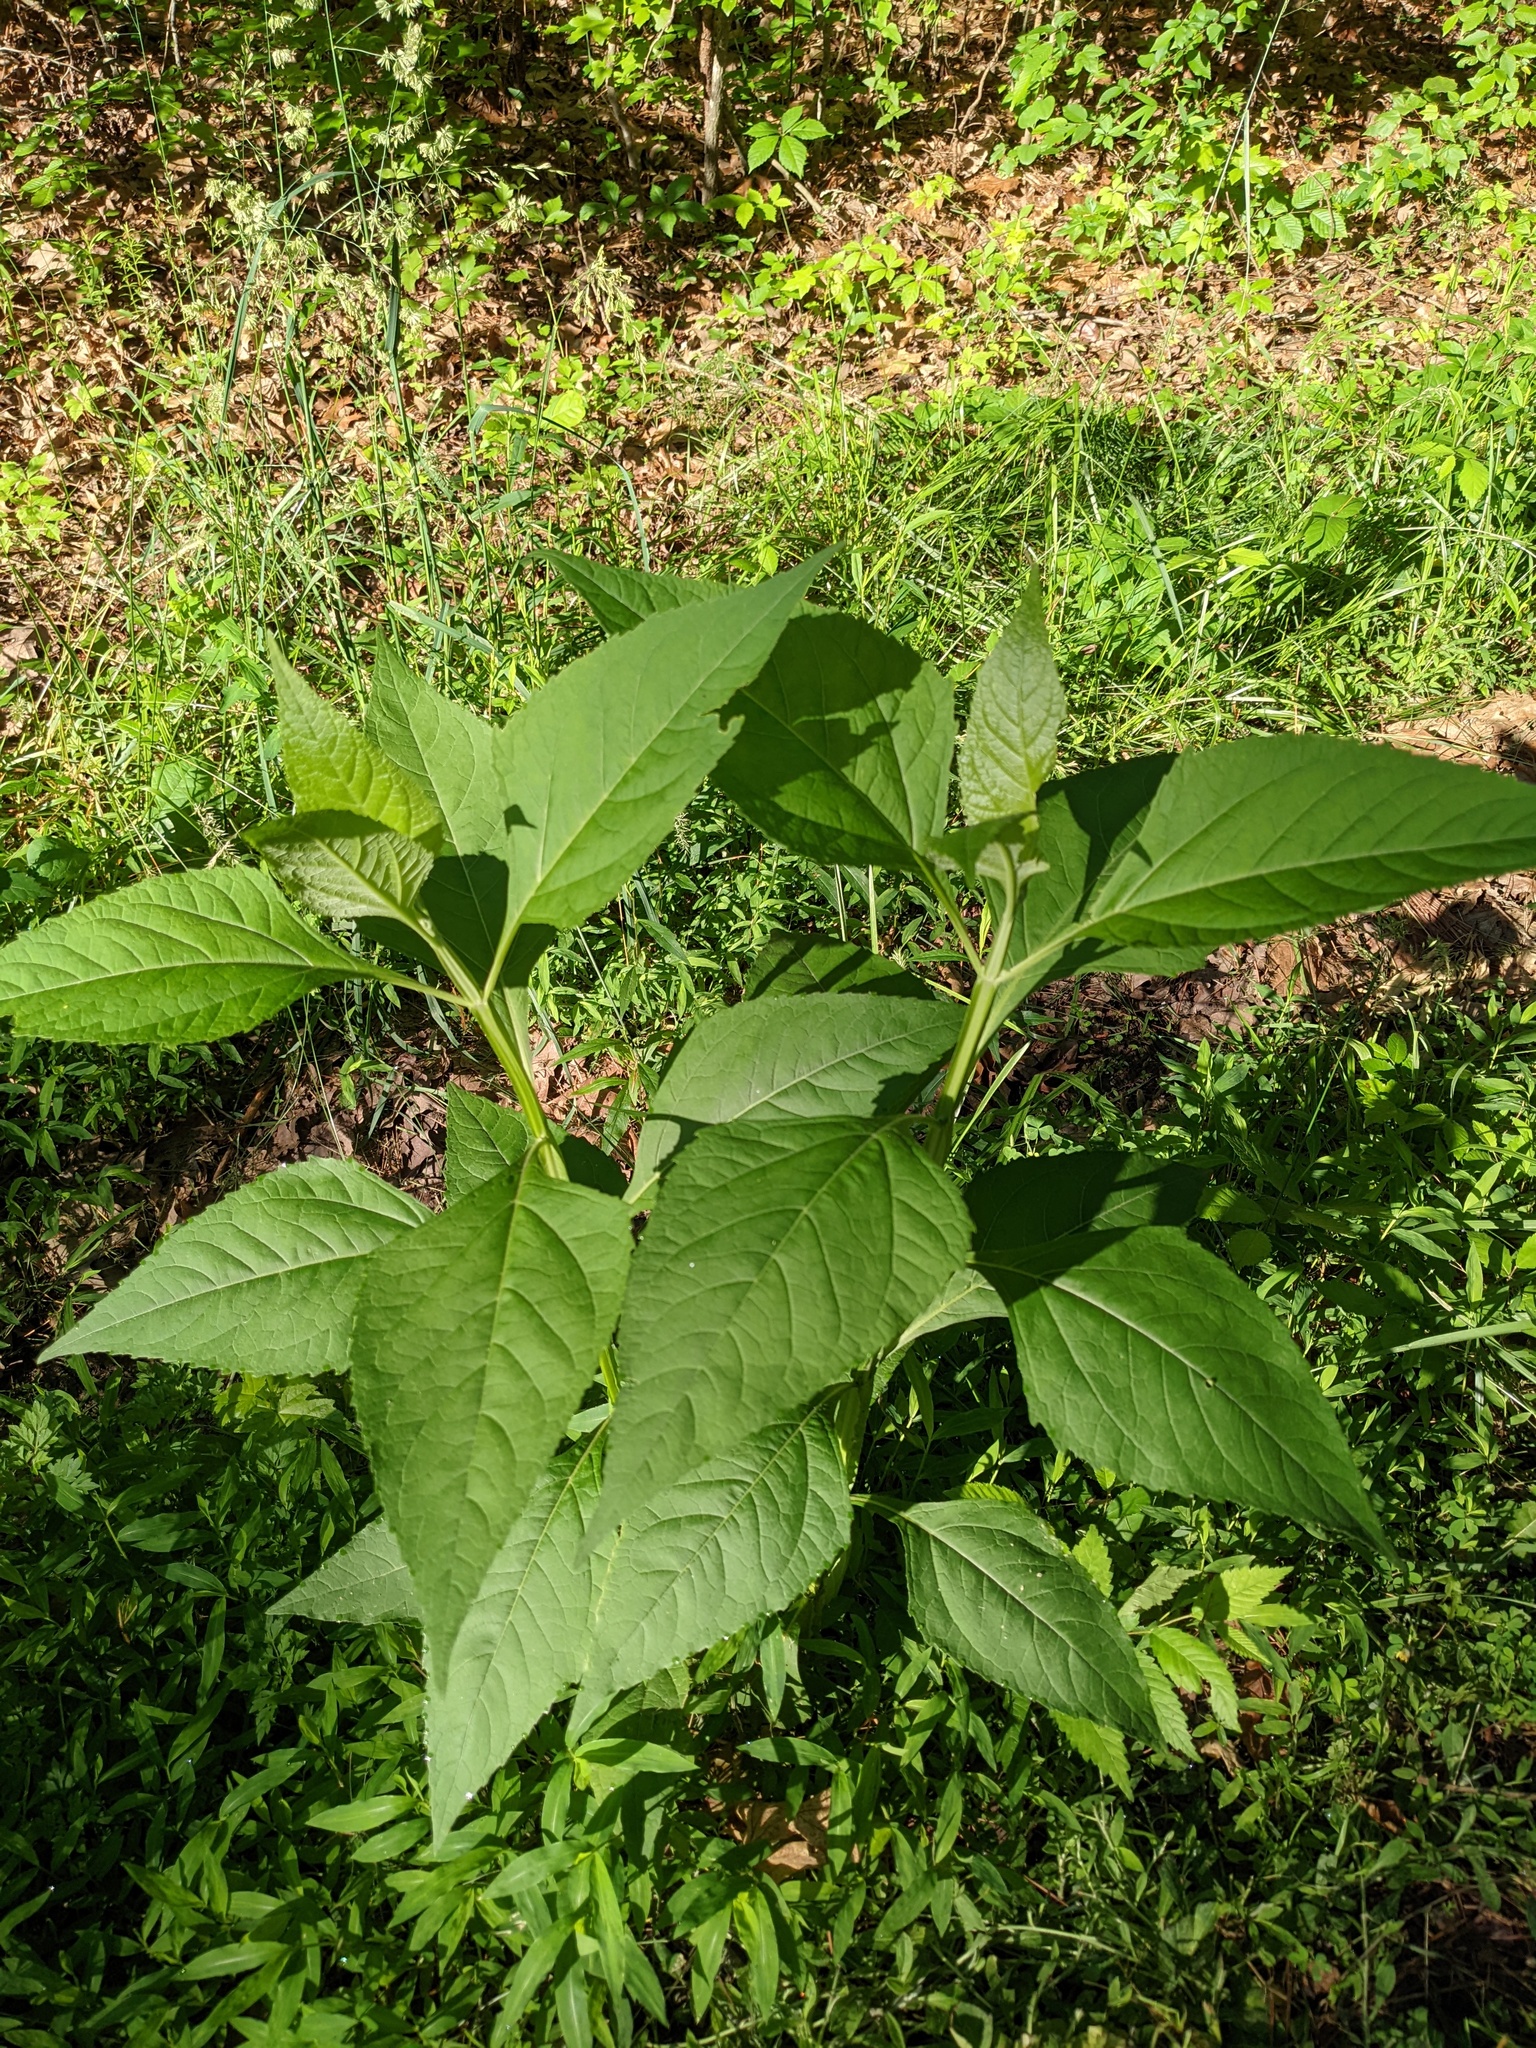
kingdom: Plantae
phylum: Tracheophyta
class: Magnoliopsida
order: Asterales
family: Asteraceae
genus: Verbesina
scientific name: Verbesina occidentalis
